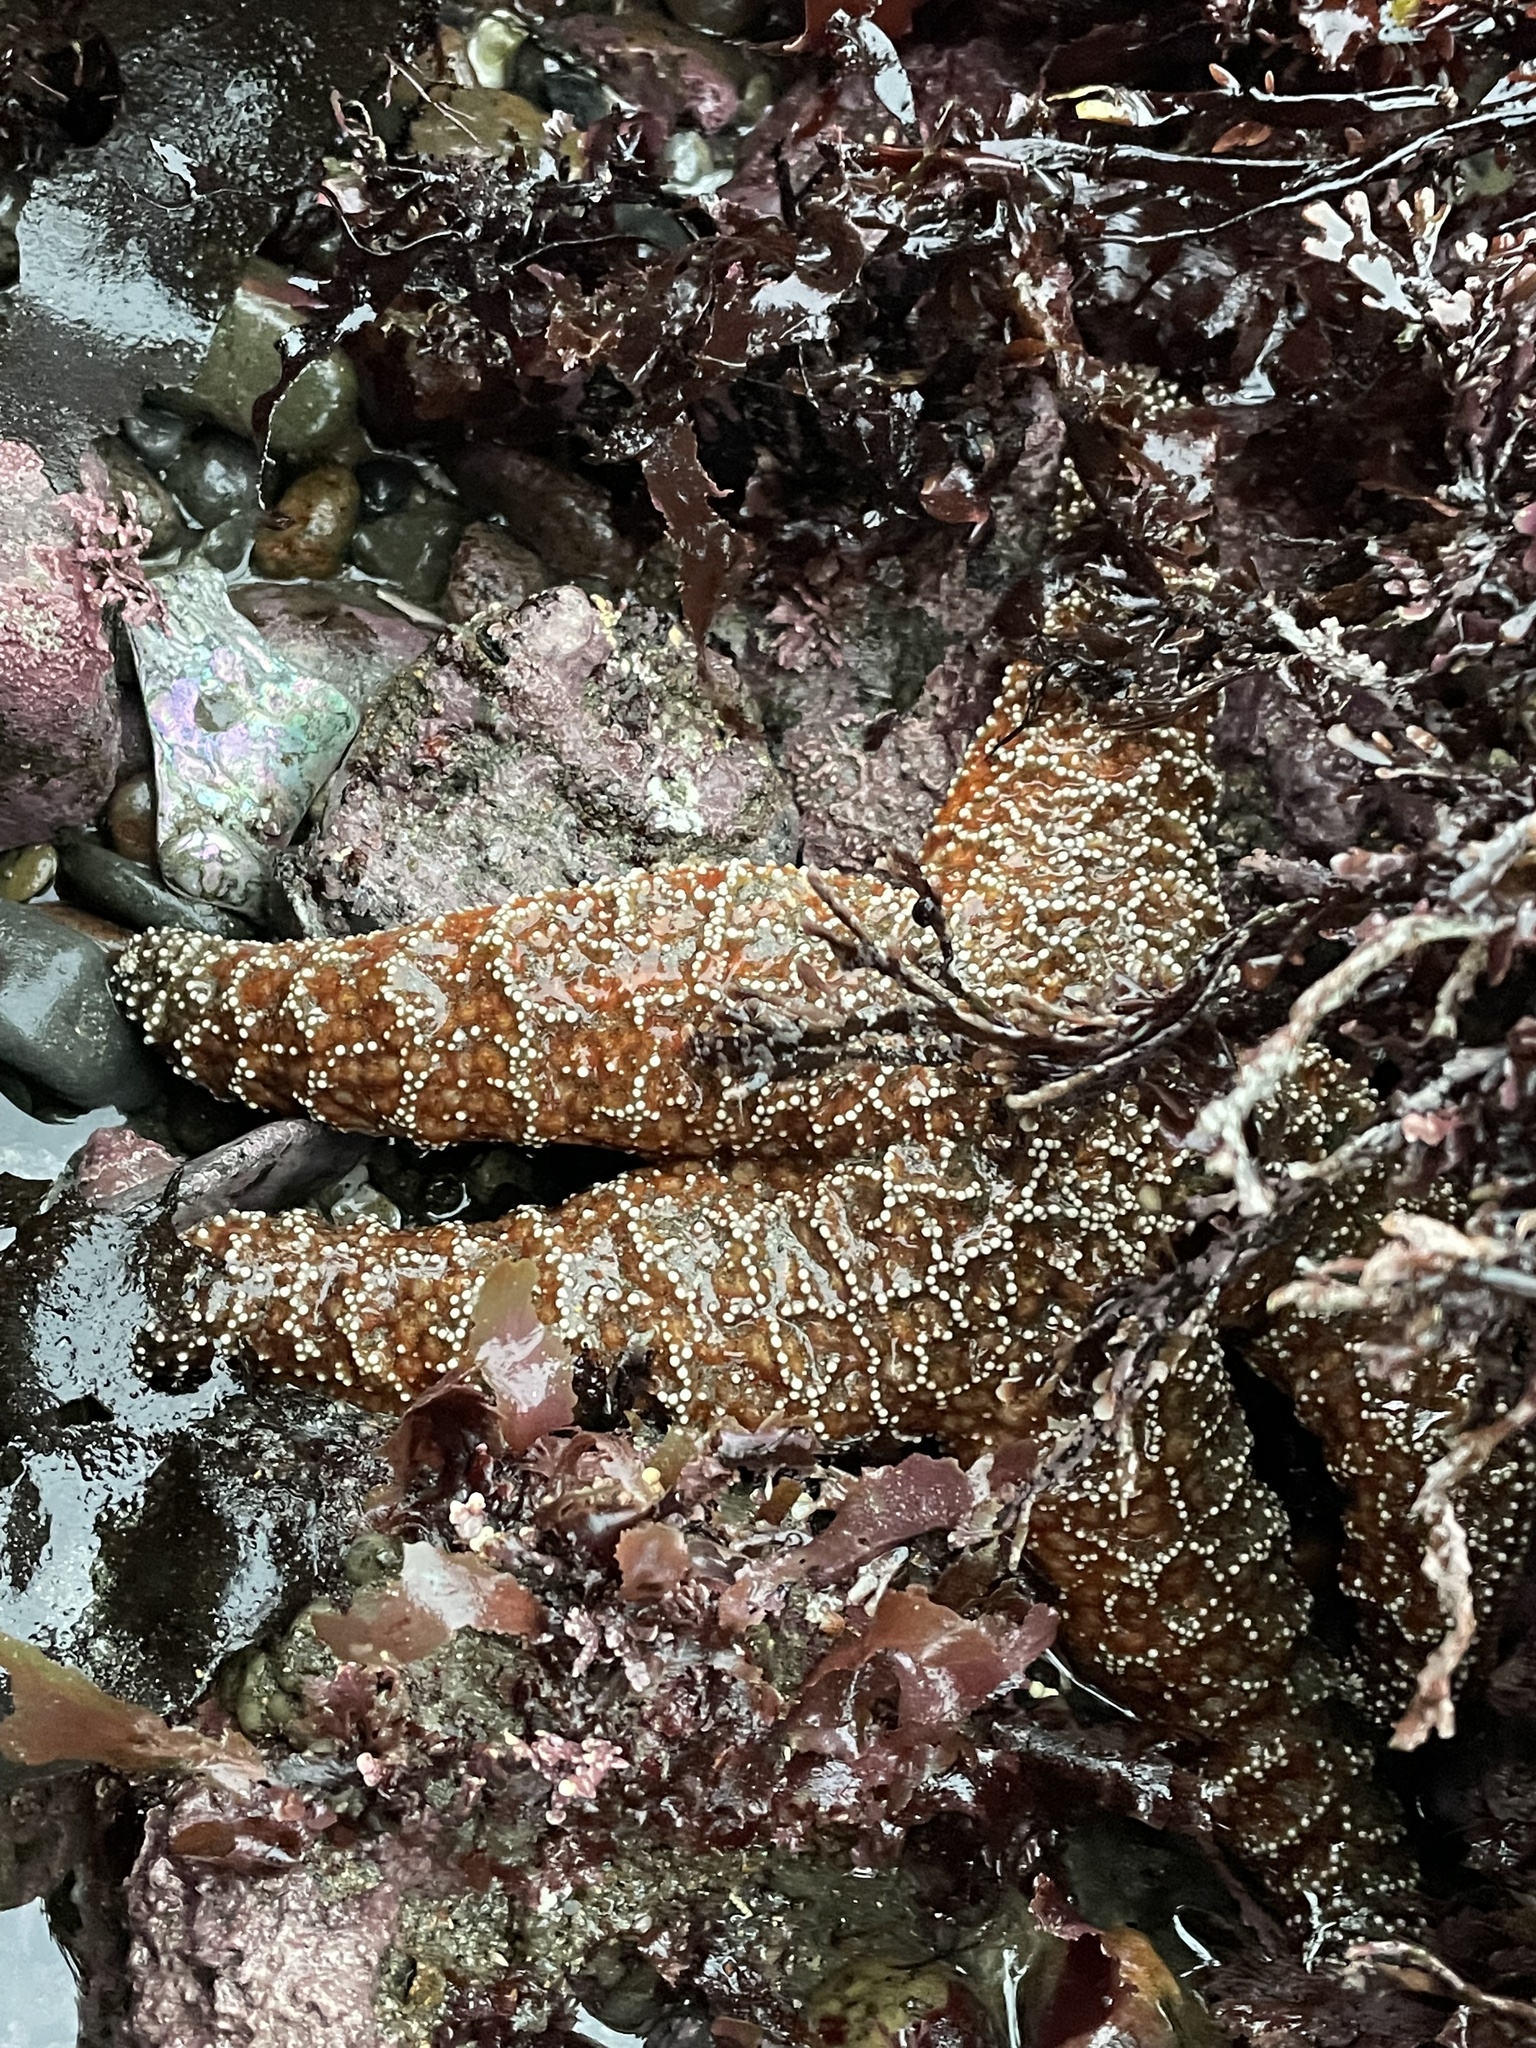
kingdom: Animalia
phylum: Echinodermata
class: Asteroidea
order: Forcipulatida
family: Asteriidae
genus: Pisaster
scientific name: Pisaster ochraceus
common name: Ochre stars
